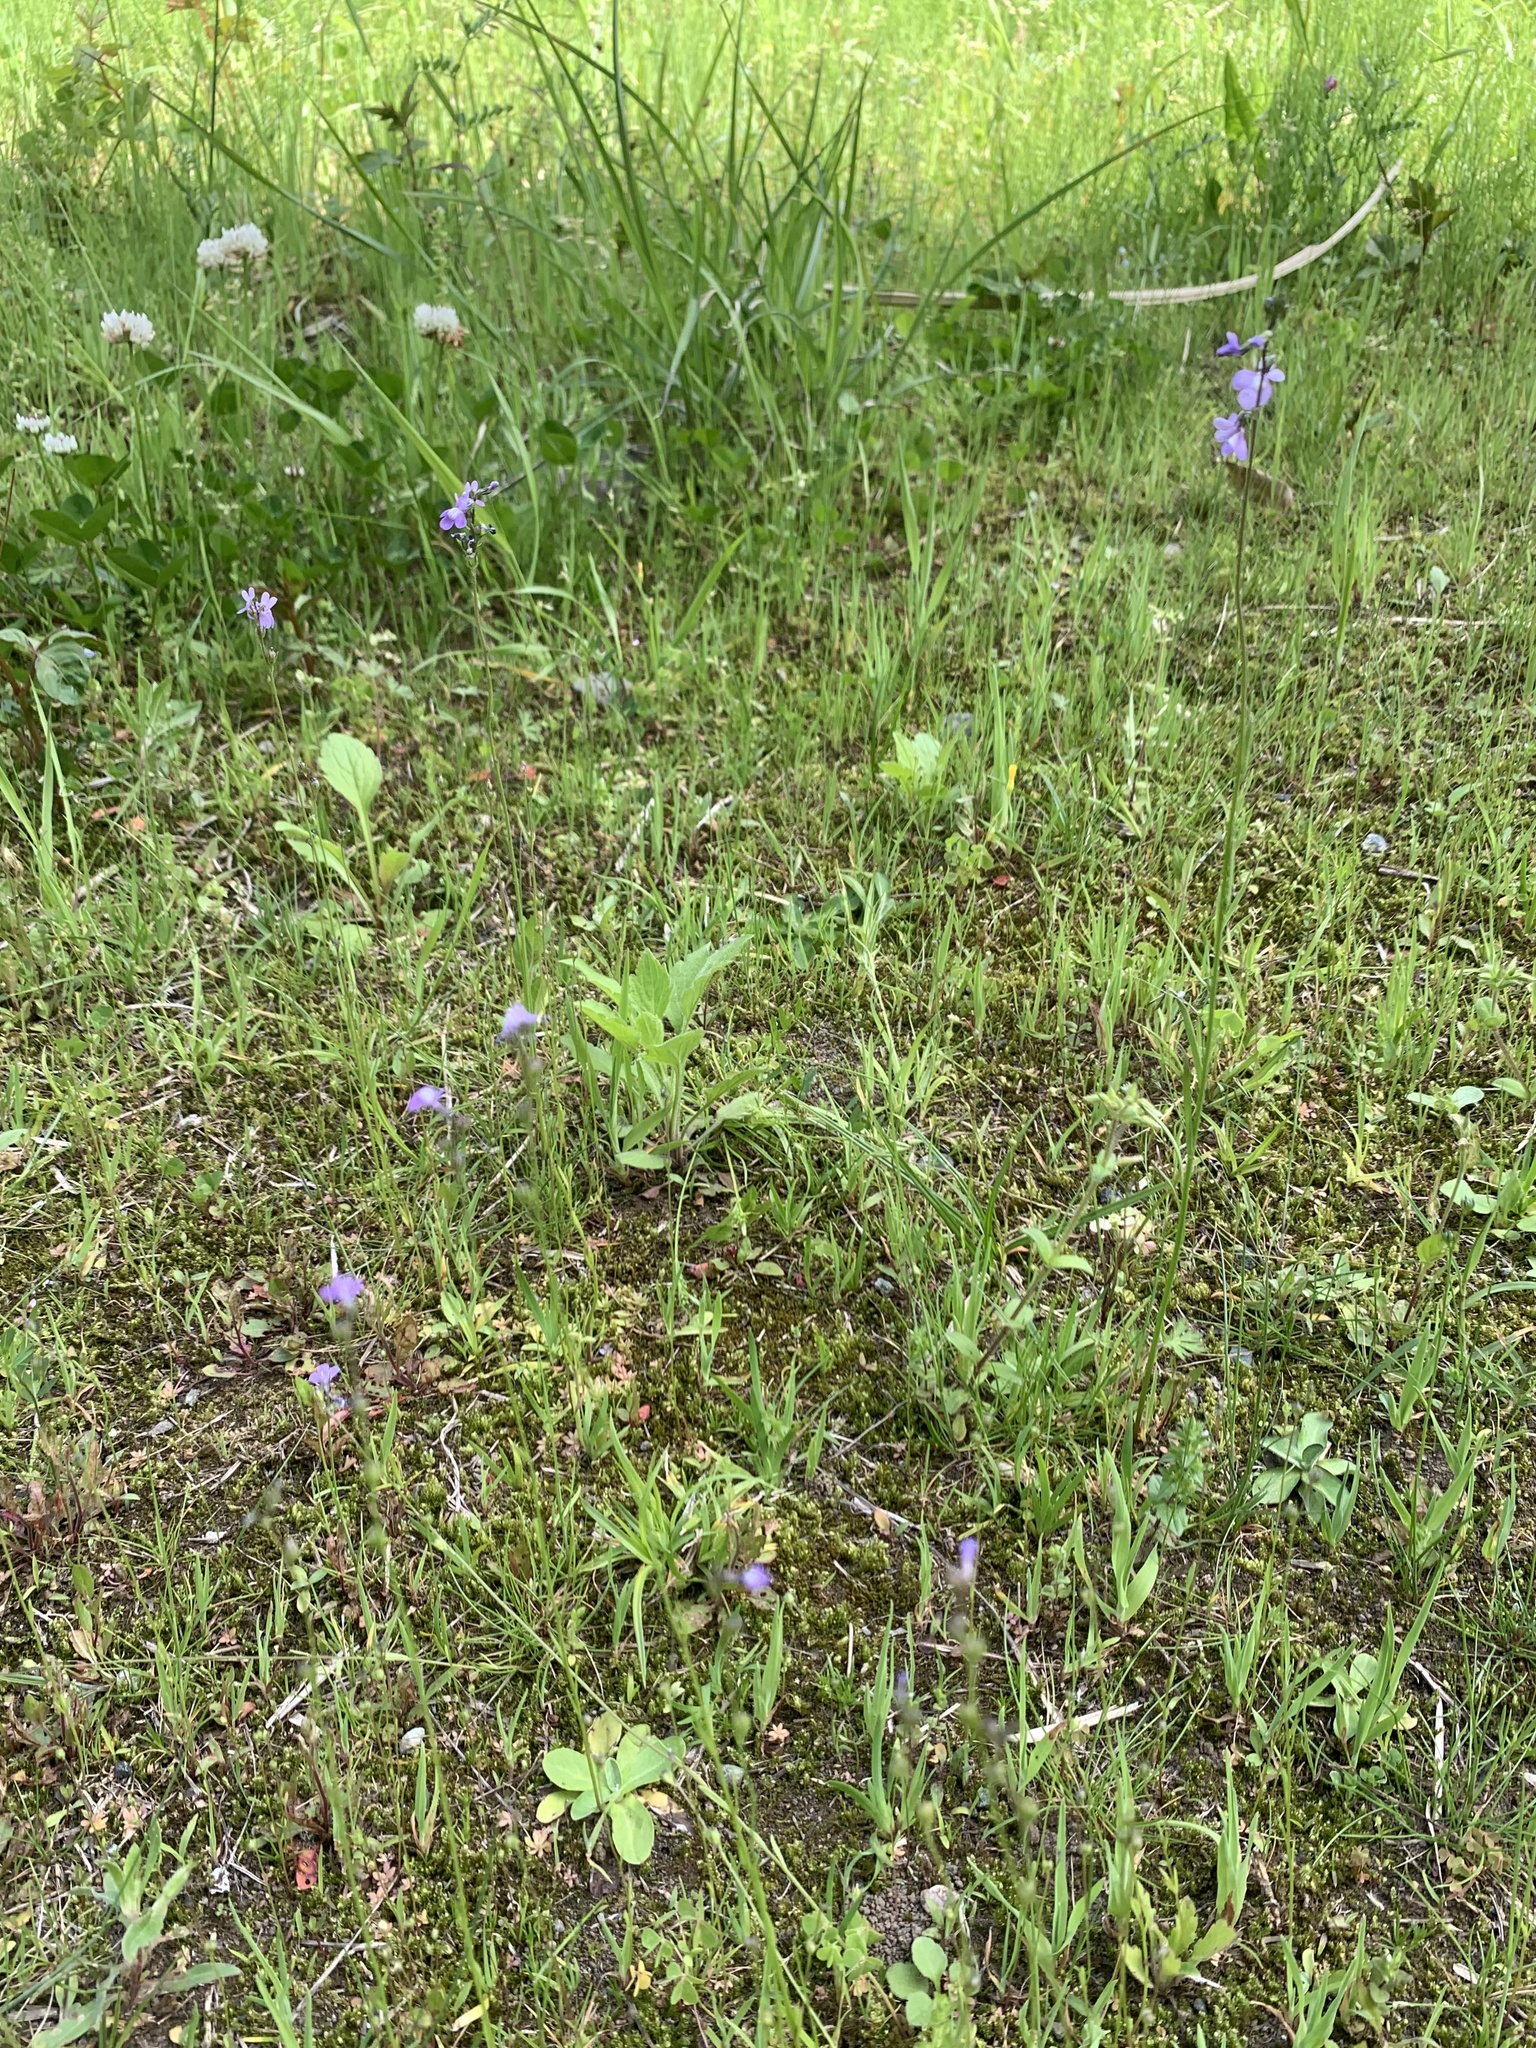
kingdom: Plantae
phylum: Tracheophyta
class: Magnoliopsida
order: Lamiales
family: Plantaginaceae
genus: Nuttallanthus
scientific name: Nuttallanthus canadensis
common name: Blue toadflax
